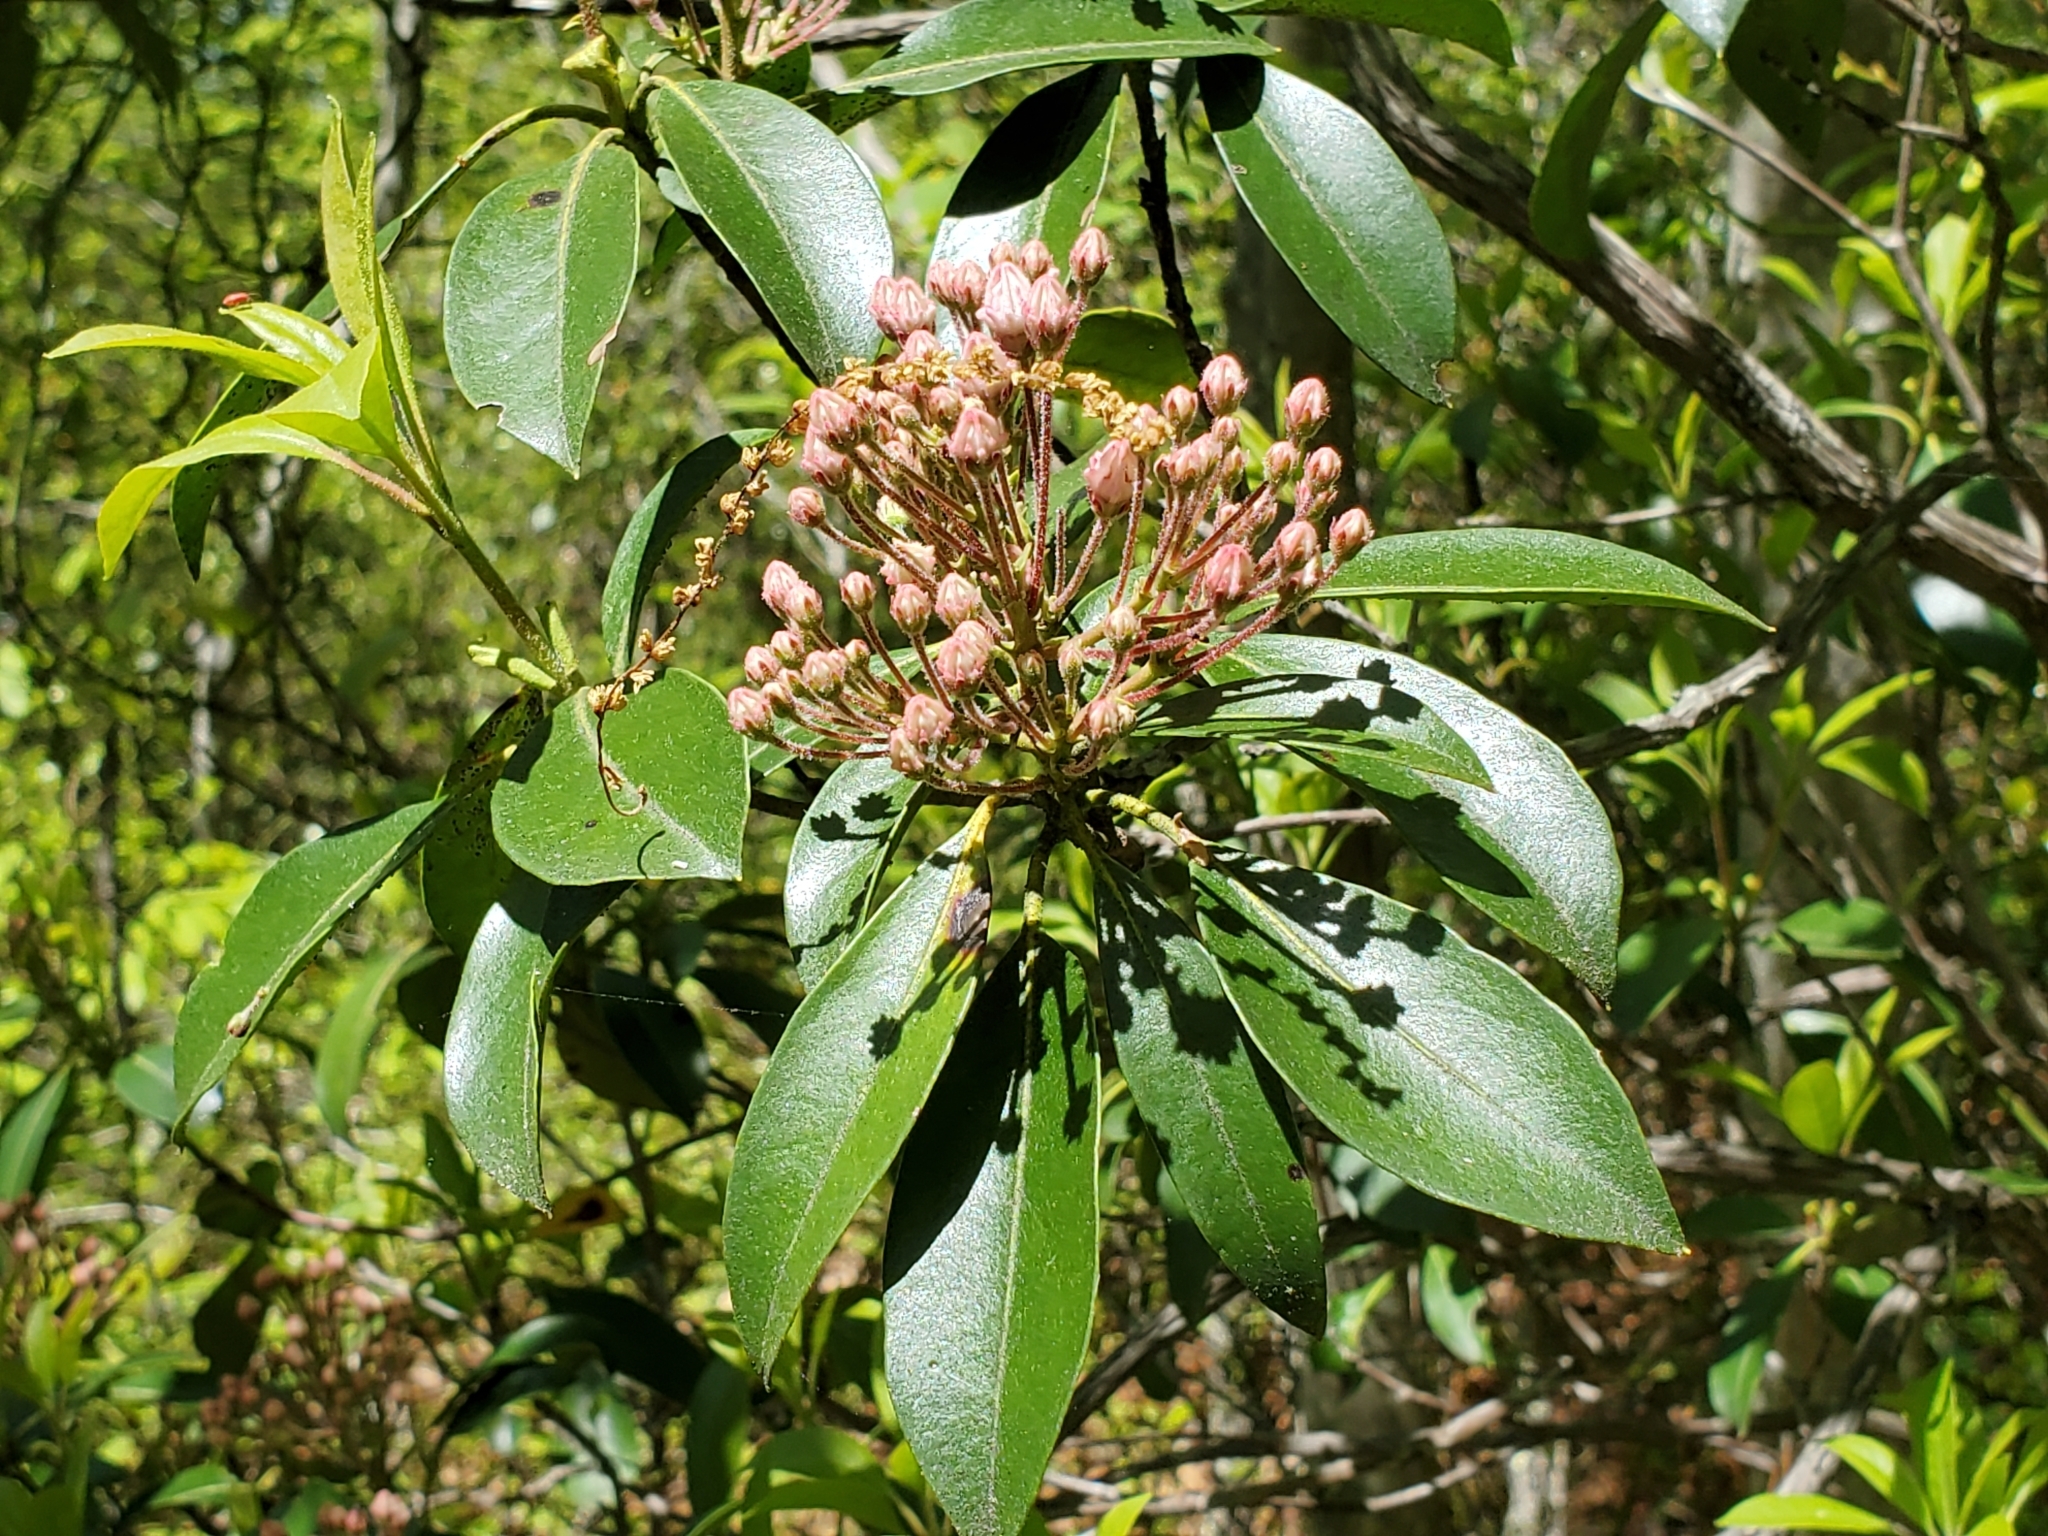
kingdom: Plantae
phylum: Tracheophyta
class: Magnoliopsida
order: Ericales
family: Ericaceae
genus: Kalmia
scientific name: Kalmia latifolia
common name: Mountain-laurel
